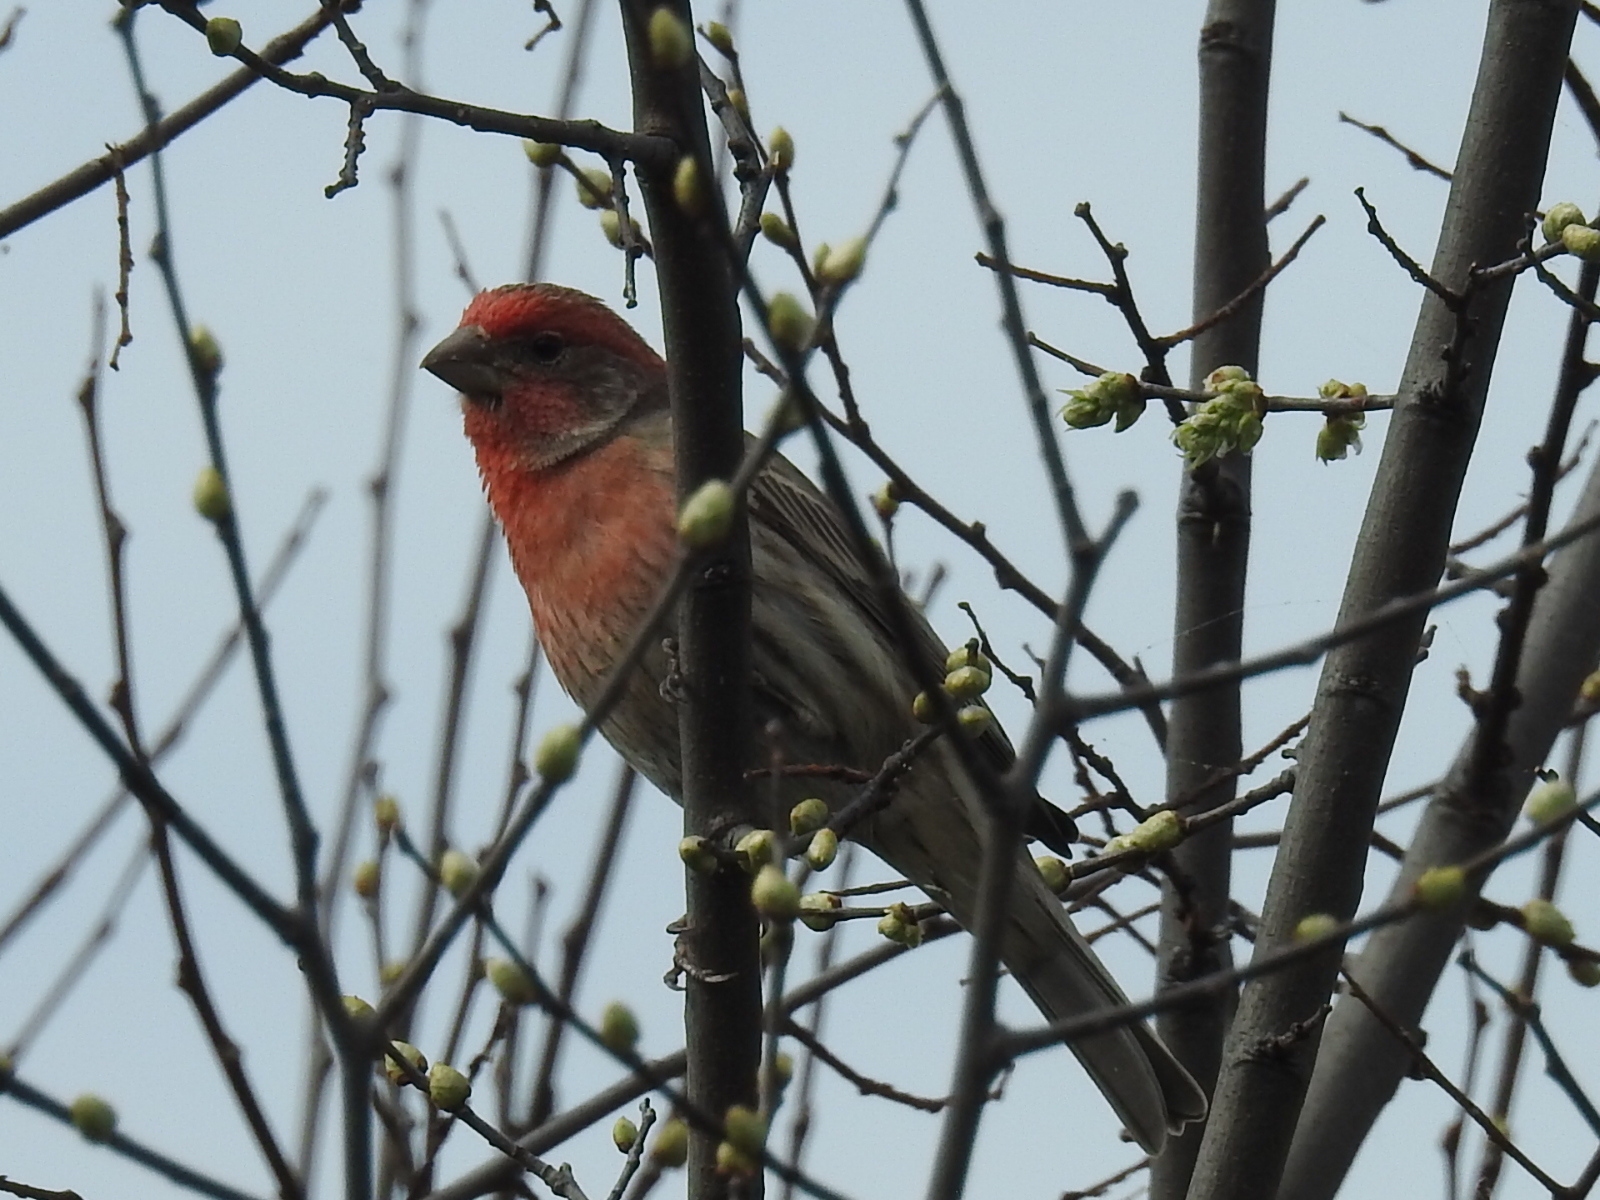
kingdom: Animalia
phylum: Chordata
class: Aves
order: Passeriformes
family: Fringillidae
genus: Haemorhous
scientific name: Haemorhous mexicanus
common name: House finch
